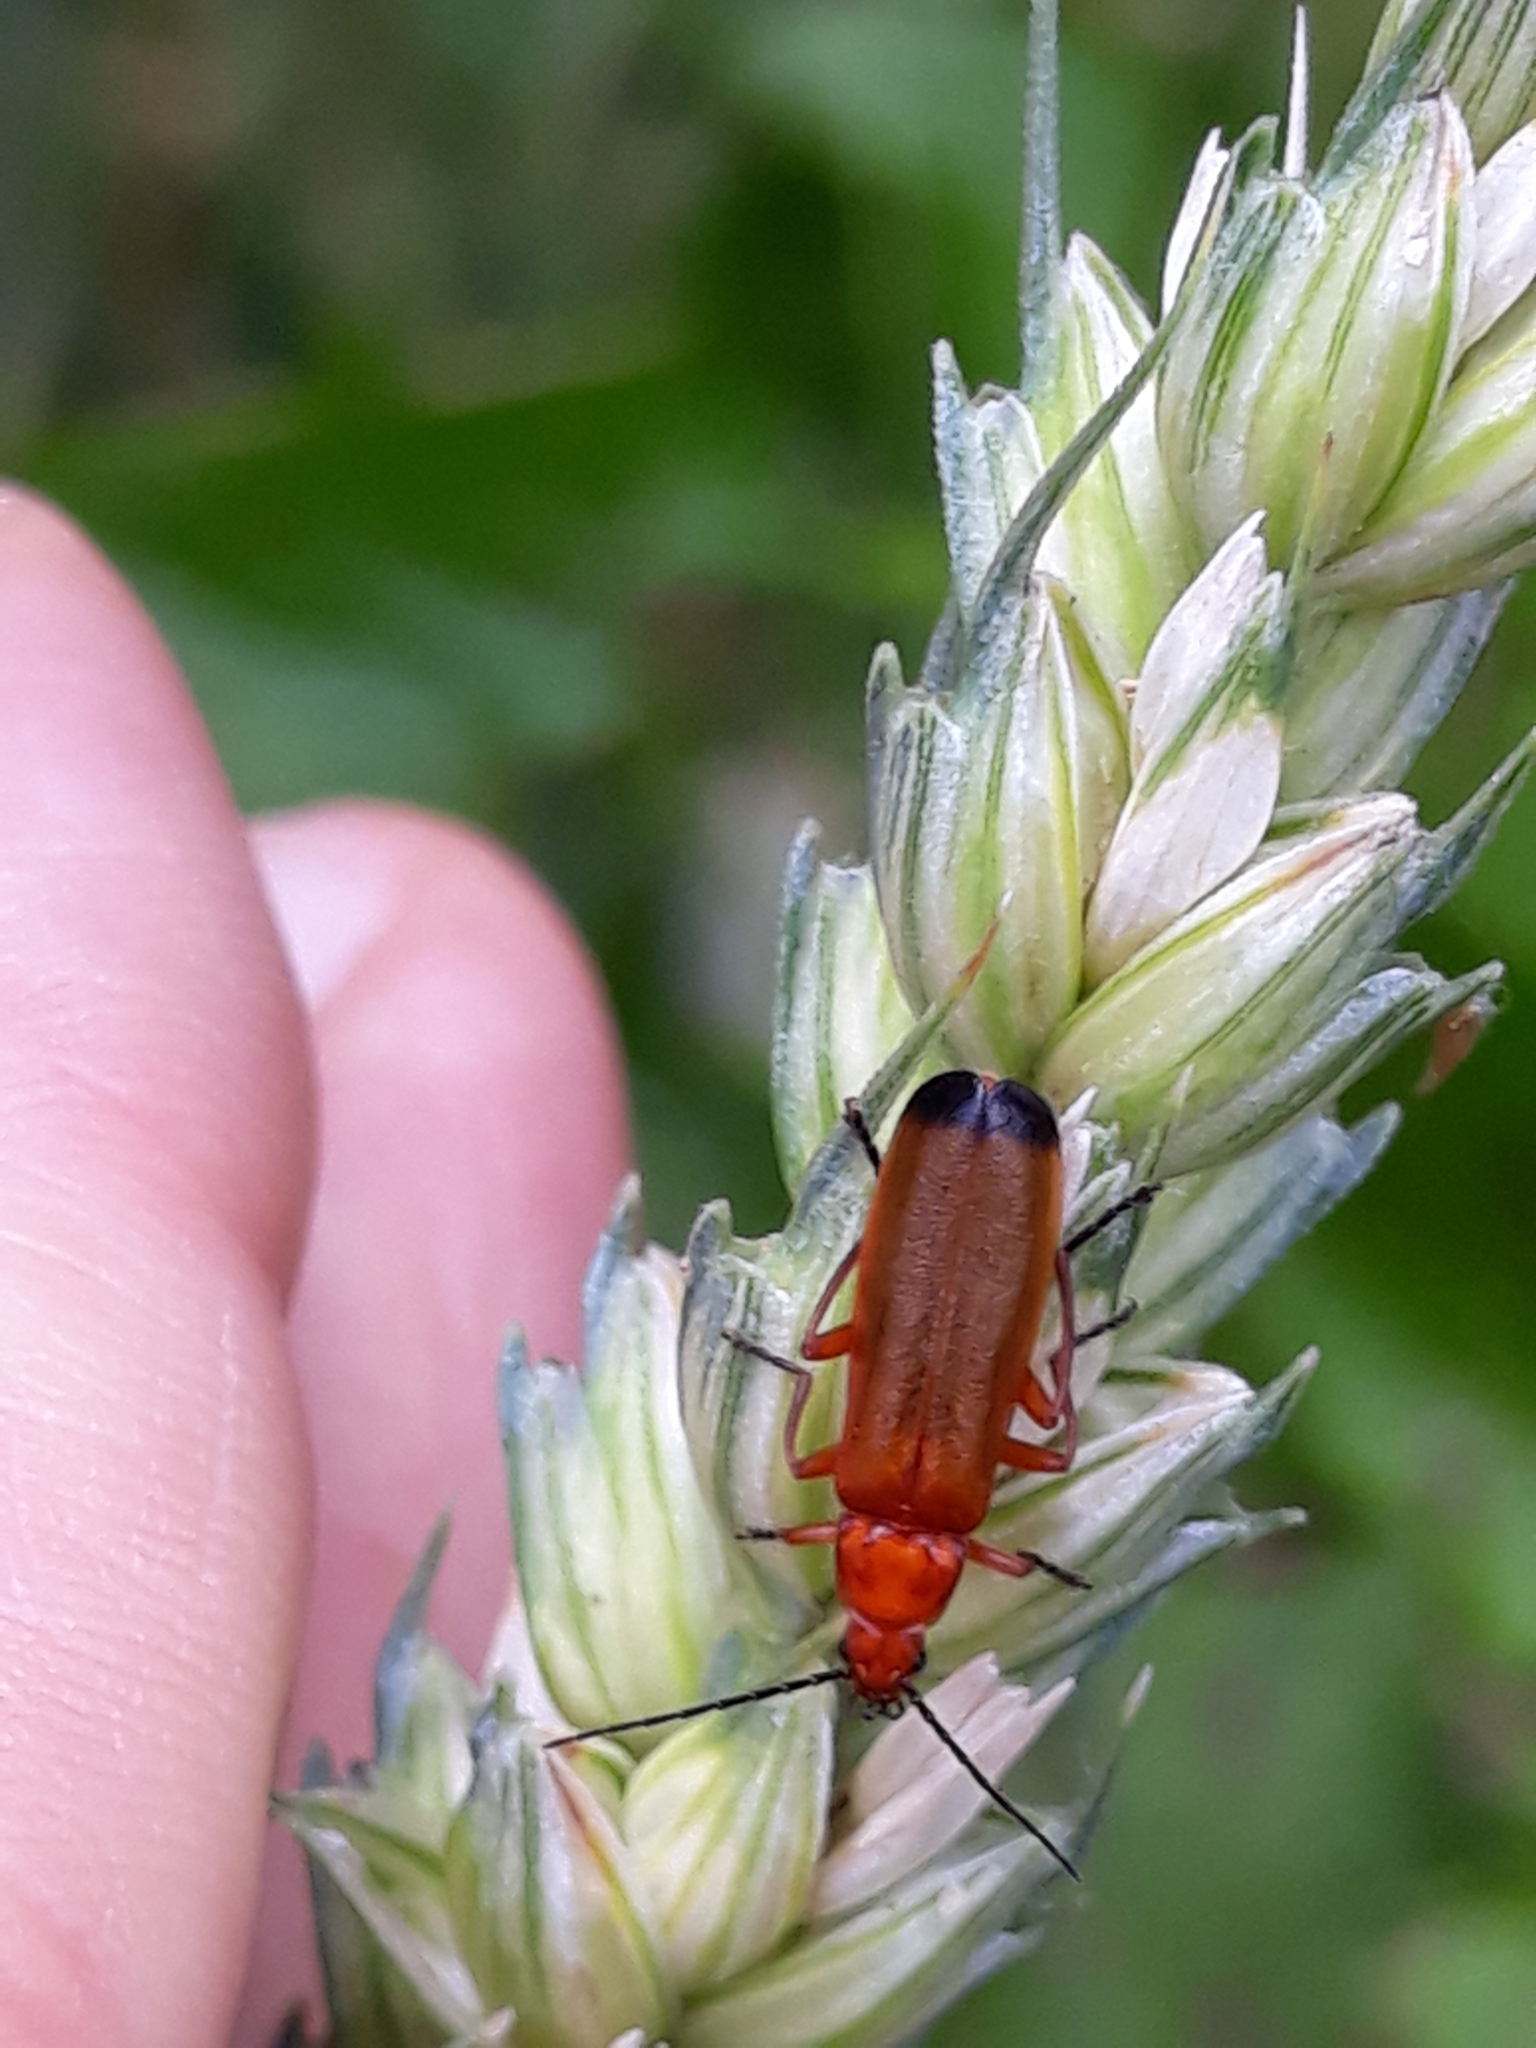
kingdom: Animalia
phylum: Arthropoda
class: Insecta
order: Coleoptera
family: Cantharidae
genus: Rhagonycha
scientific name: Rhagonycha fulva
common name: Common red soldier beetle
